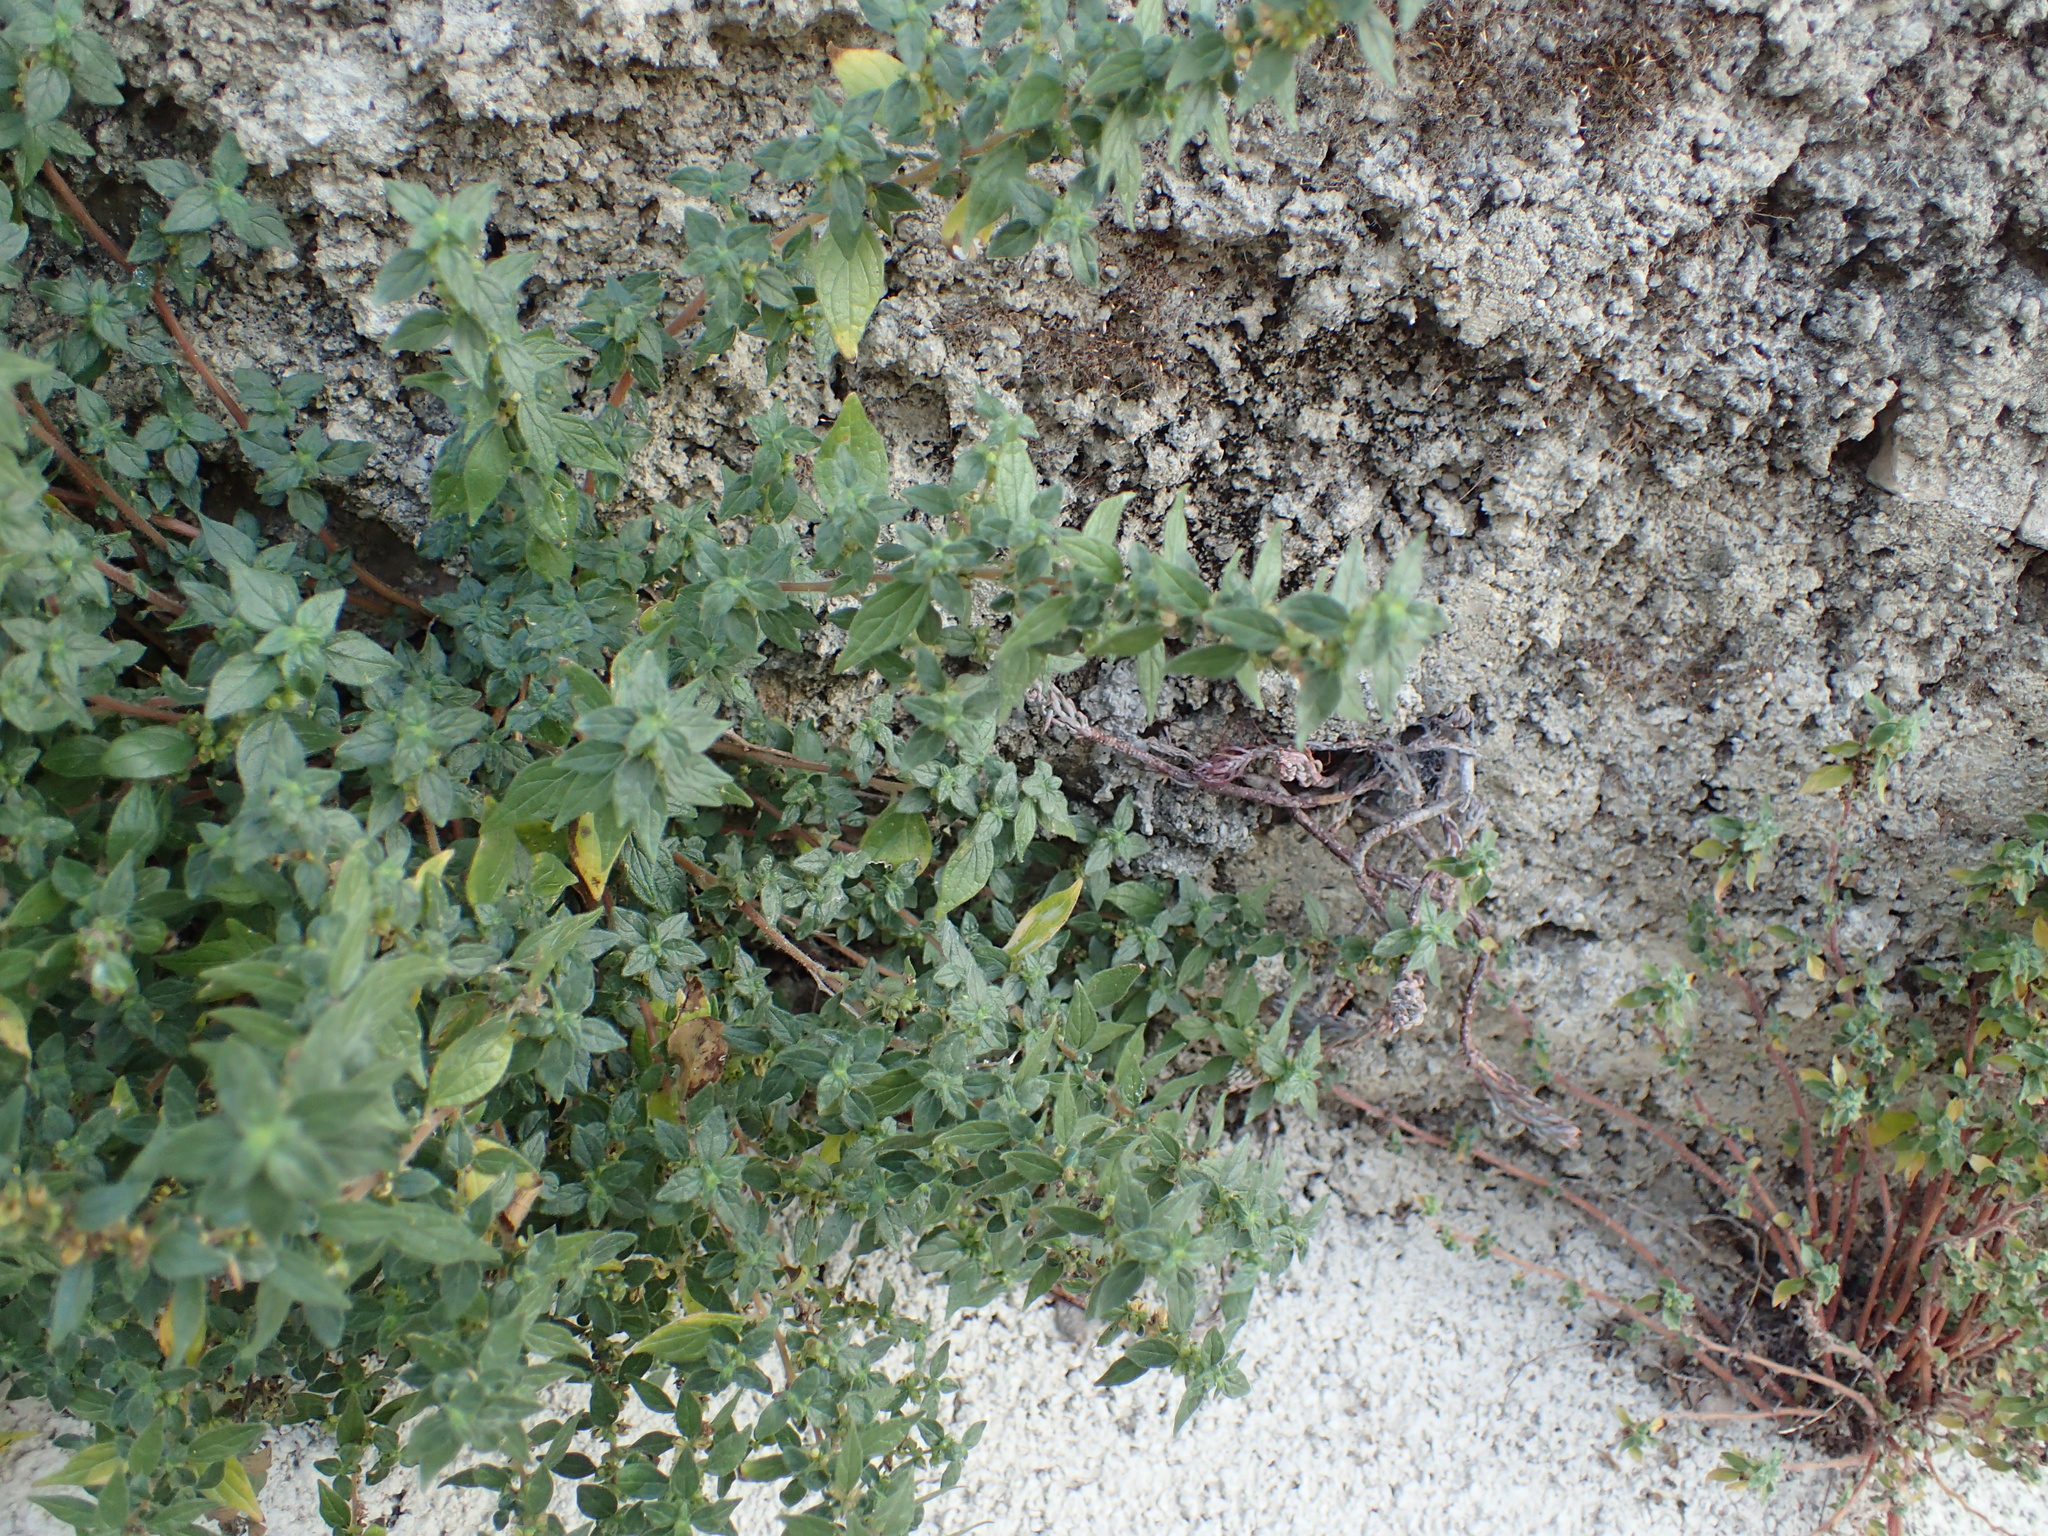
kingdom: Plantae
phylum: Tracheophyta
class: Magnoliopsida
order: Rosales
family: Urticaceae
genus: Parietaria
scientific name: Parietaria judaica
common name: Pellitory-of-the-wall
